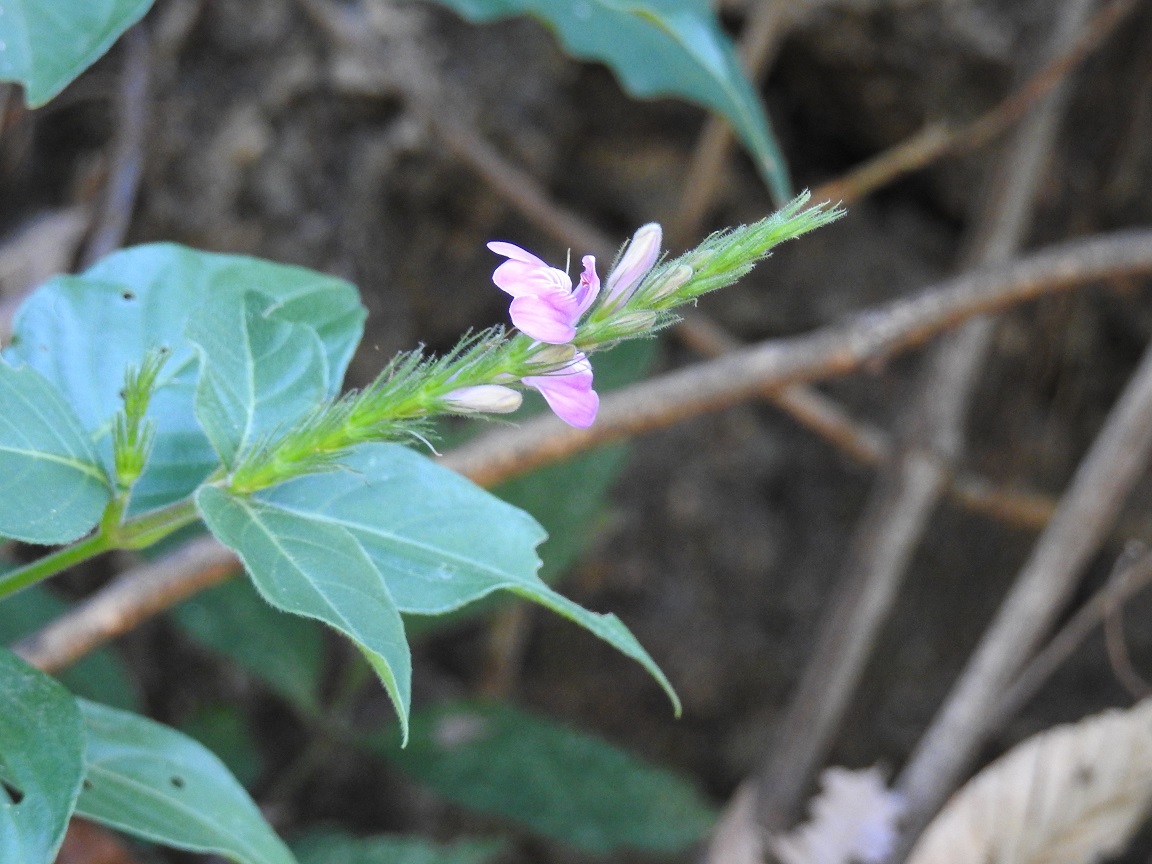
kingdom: Plantae
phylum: Tracheophyta
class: Magnoliopsida
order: Lamiales
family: Acanthaceae
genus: Dianthera
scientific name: Dianthera breviflora
